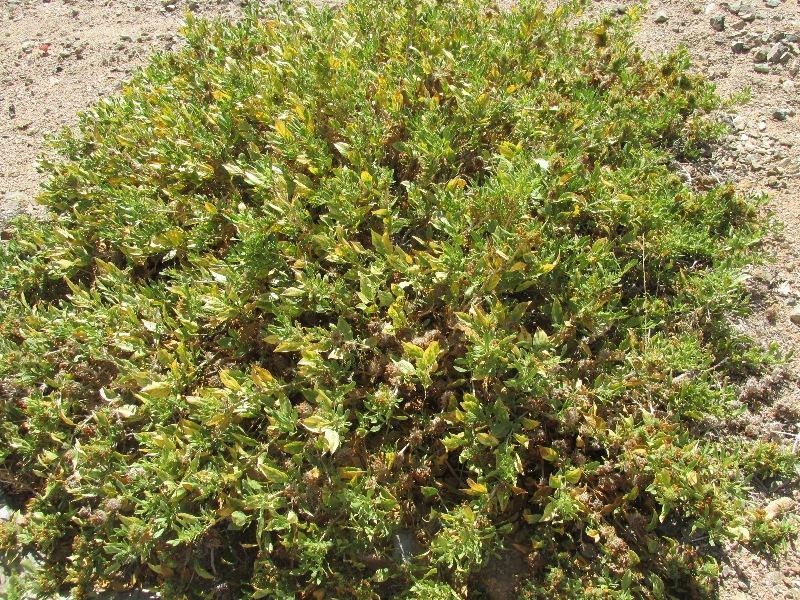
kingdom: Plantae
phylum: Tracheophyta
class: Magnoliopsida
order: Lamiales
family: Acanthaceae
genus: Petalidium
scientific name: Petalidium setosum
